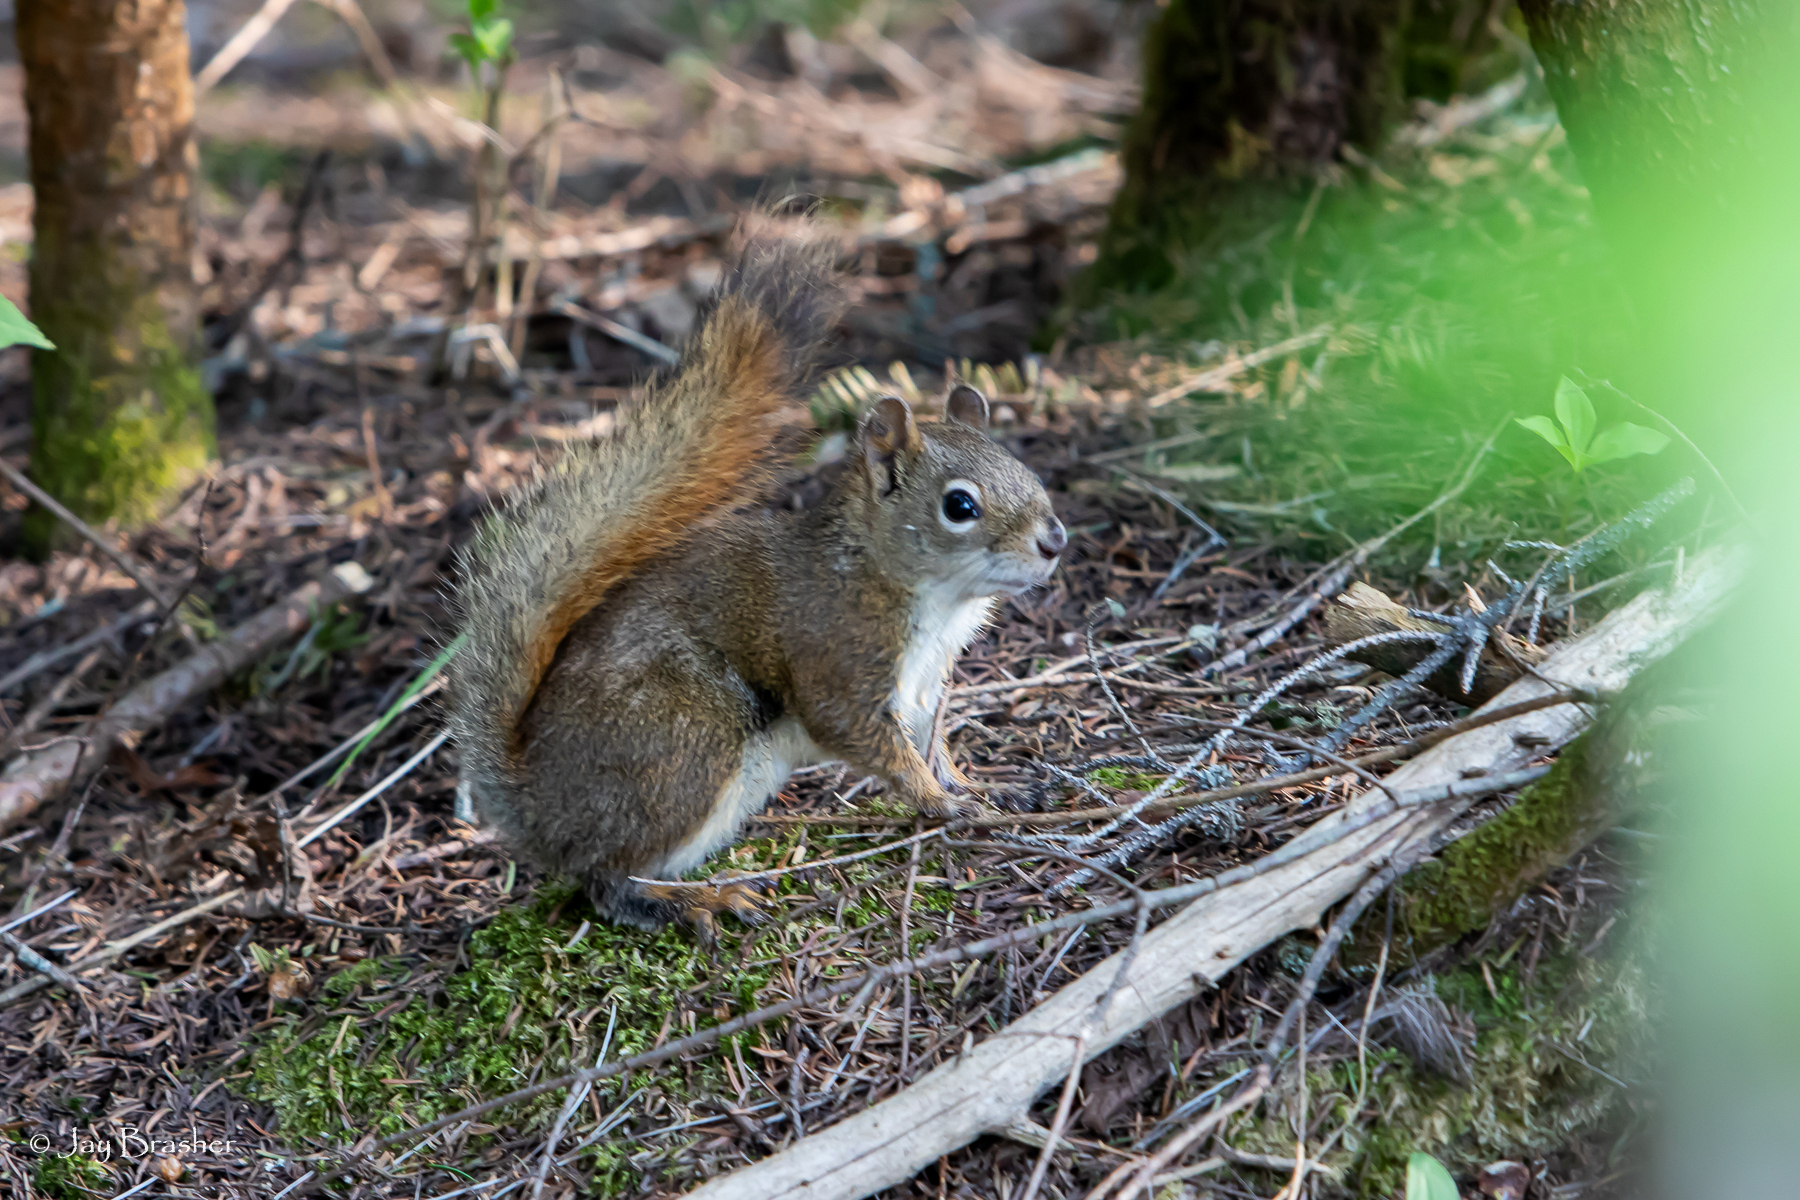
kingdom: Animalia
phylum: Chordata
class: Mammalia
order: Rodentia
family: Sciuridae
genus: Tamiasciurus
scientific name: Tamiasciurus hudsonicus
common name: Red squirrel
